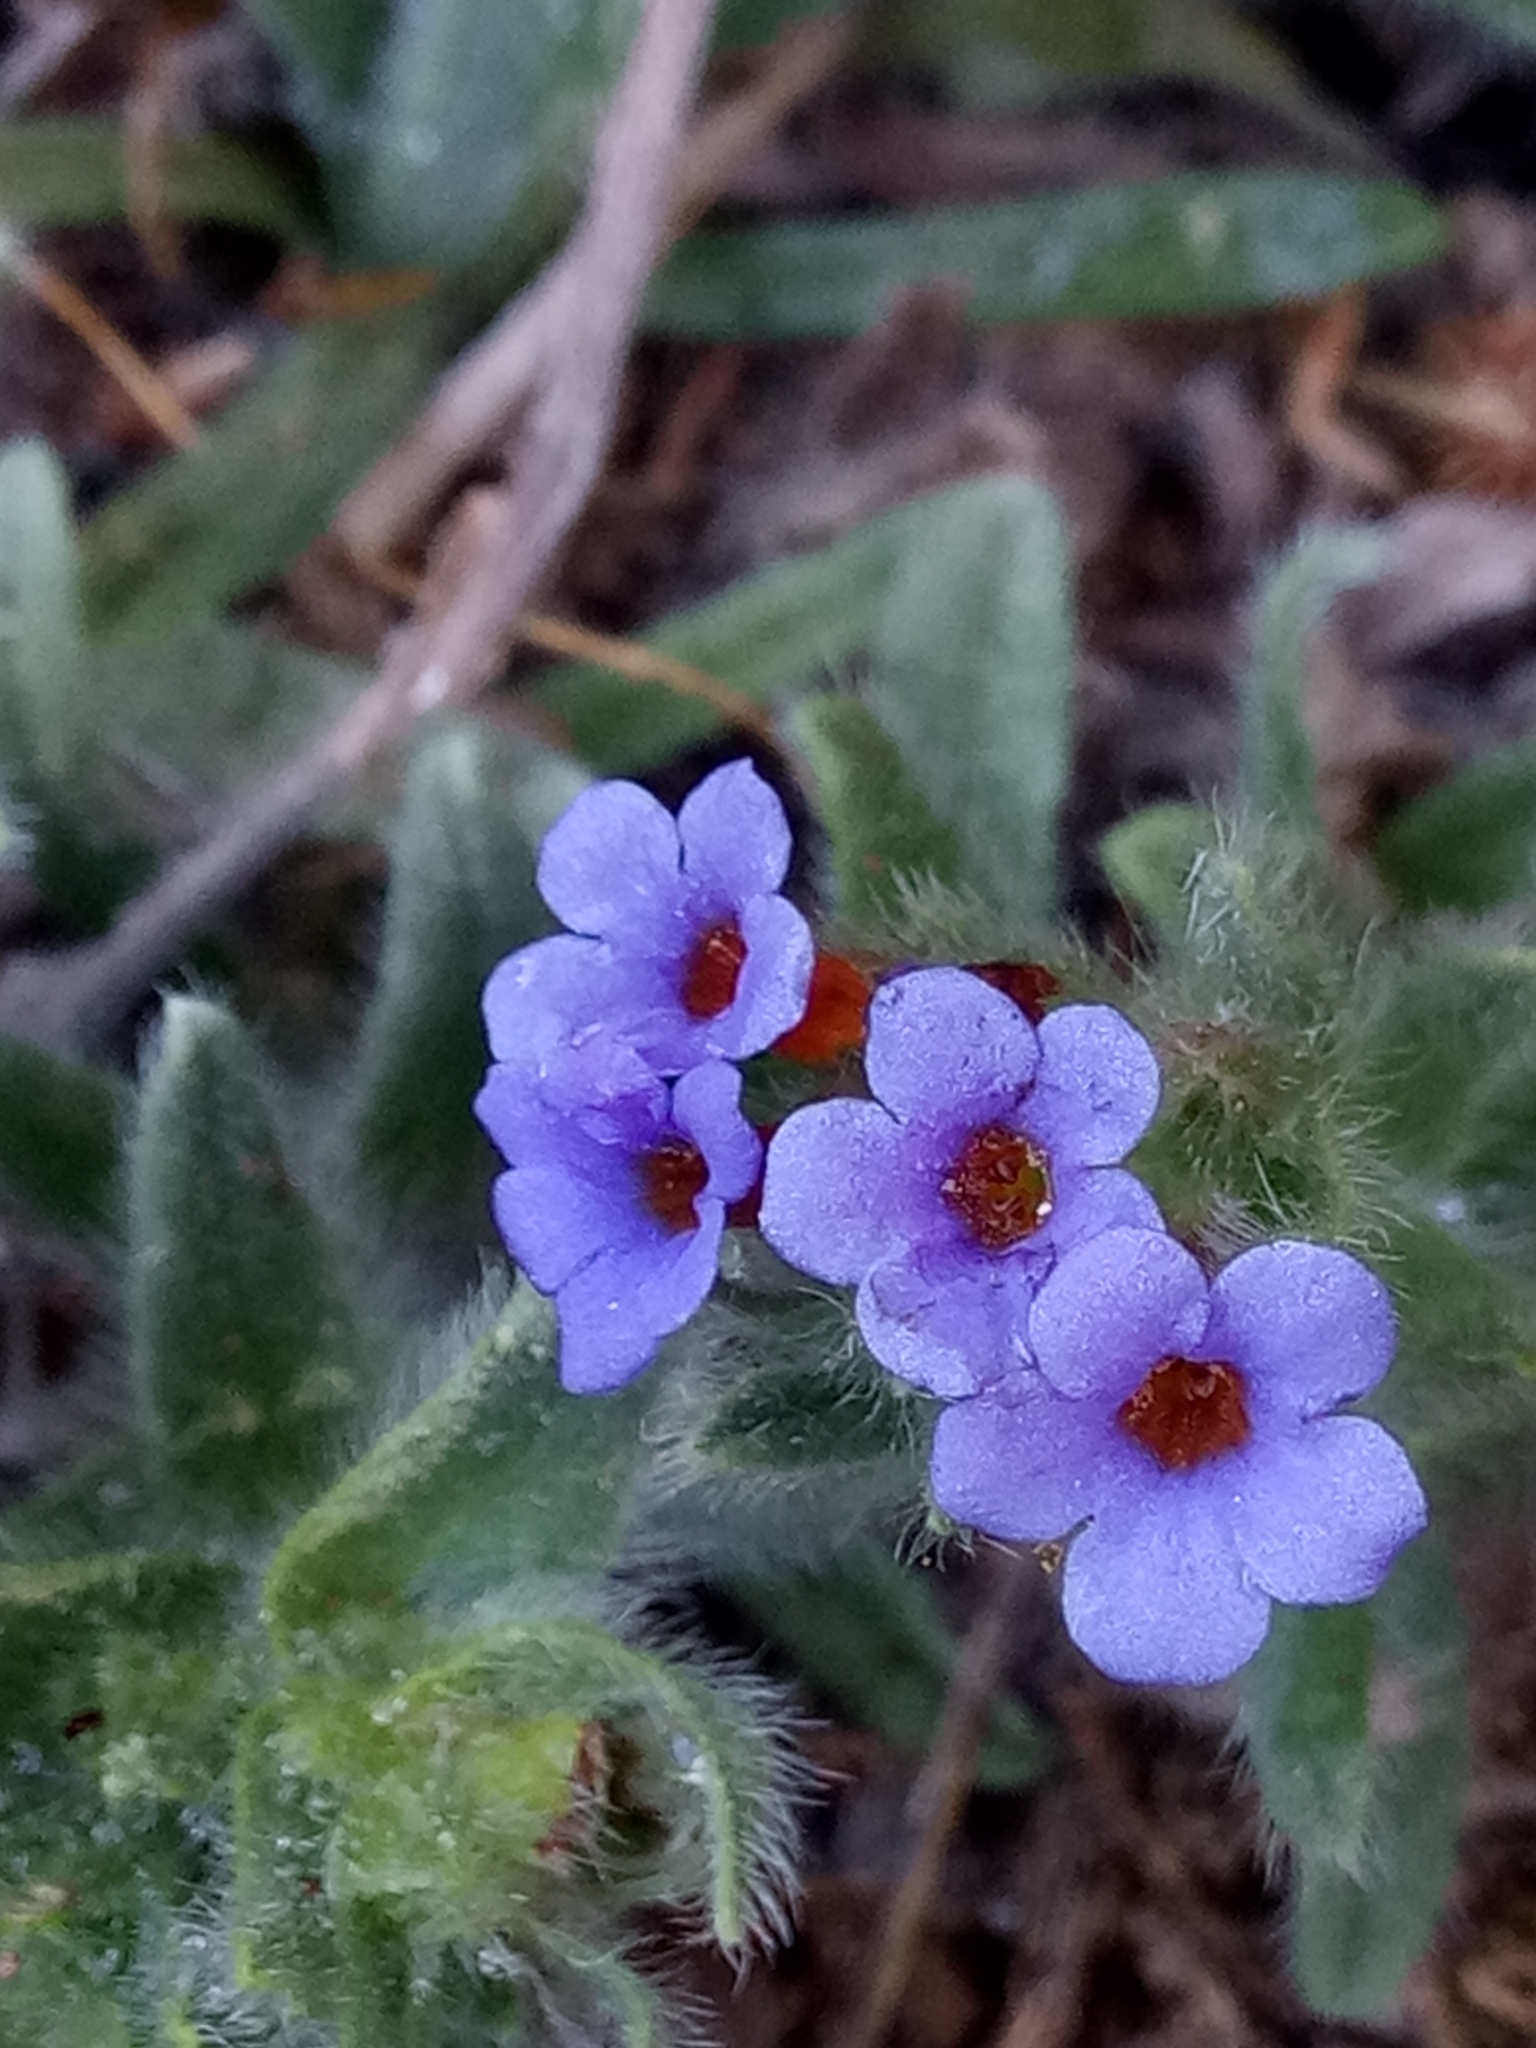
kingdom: Plantae
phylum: Tracheophyta
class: Magnoliopsida
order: Boraginales
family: Boraginaceae
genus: Alkanna
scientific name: Alkanna tinctoria
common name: Dyer's-alkanet
